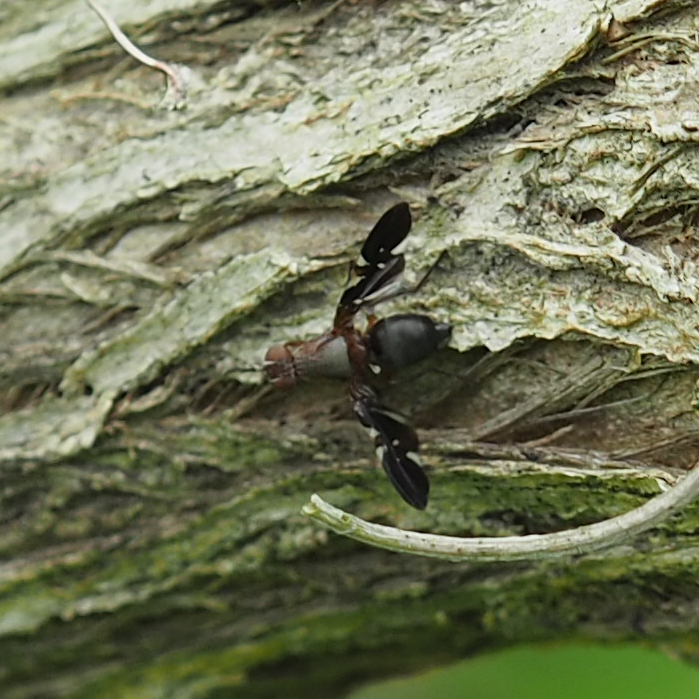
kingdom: Animalia
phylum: Arthropoda
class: Insecta
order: Diptera
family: Ulidiidae
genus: Delphinia
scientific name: Delphinia picta
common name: Common picture-winged fly
